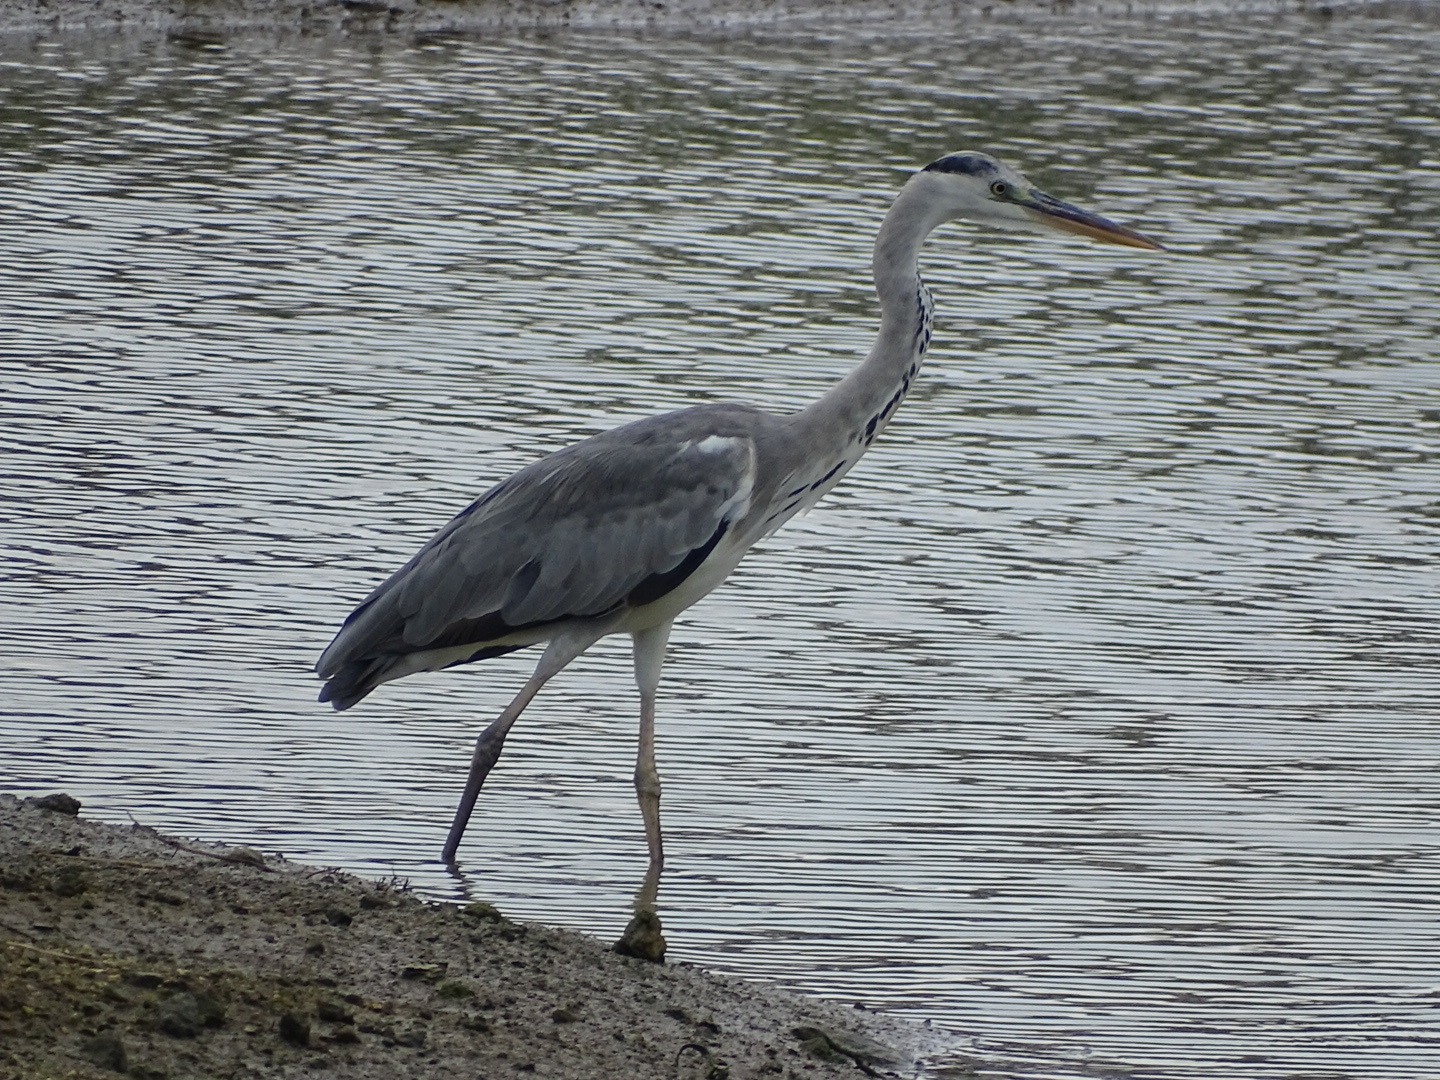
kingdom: Animalia
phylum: Chordata
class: Aves
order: Pelecaniformes
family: Ardeidae
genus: Ardea
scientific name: Ardea cinerea
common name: Grey heron
